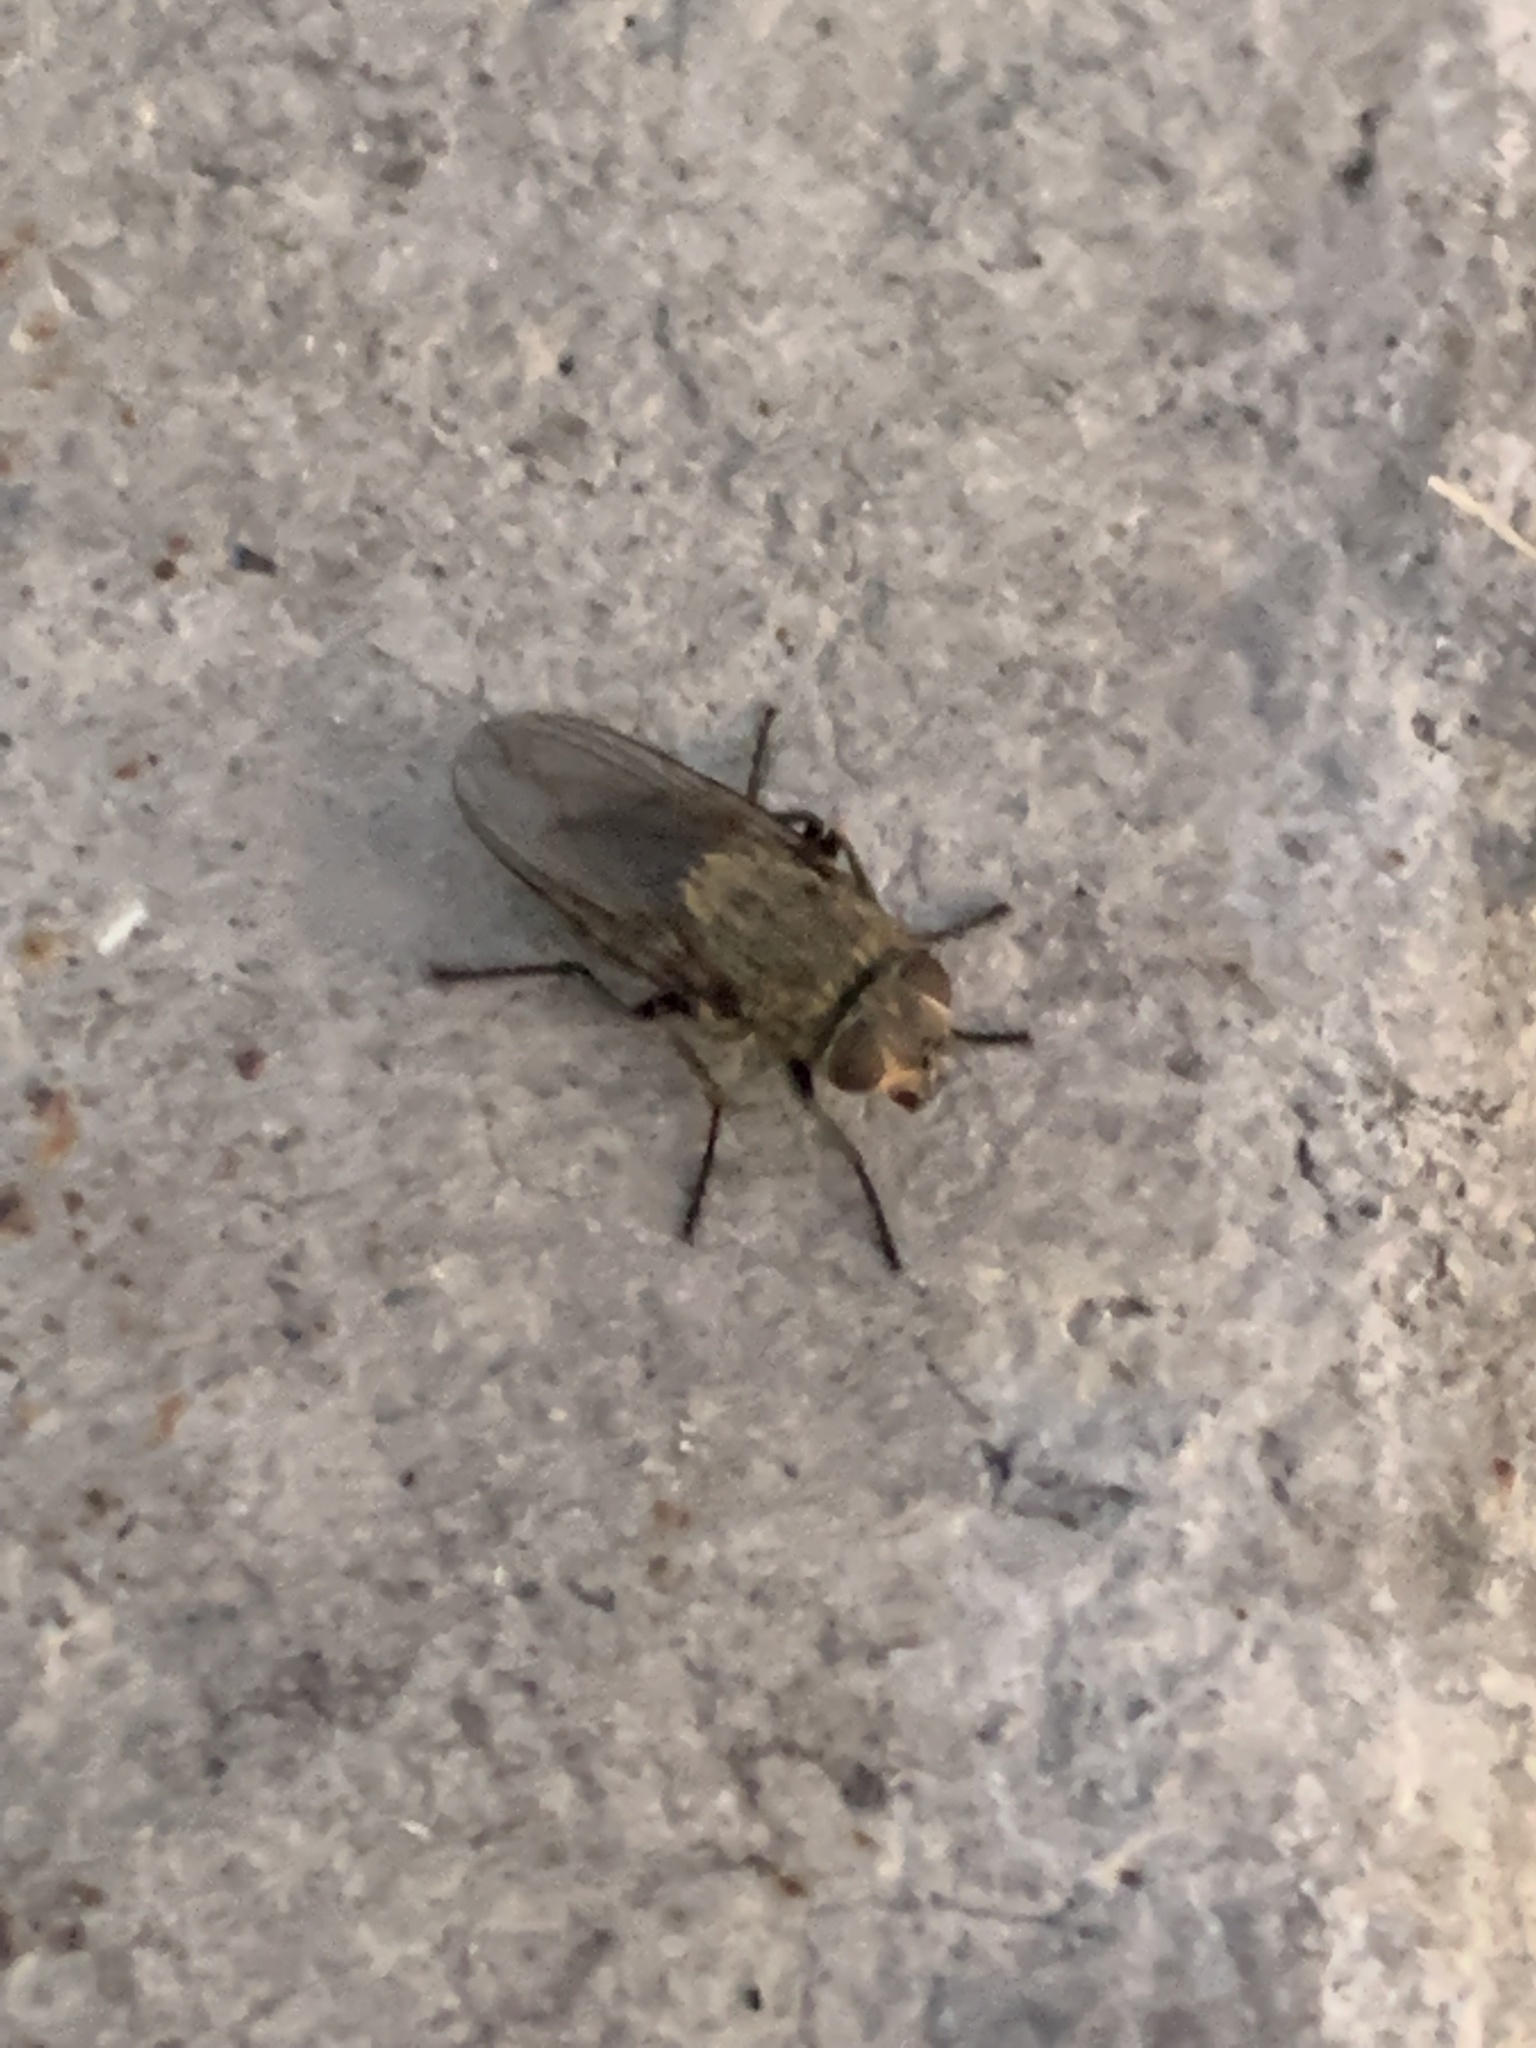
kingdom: Animalia
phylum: Arthropoda
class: Insecta
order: Diptera
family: Polleniidae
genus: Pollenia
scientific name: Pollenia
